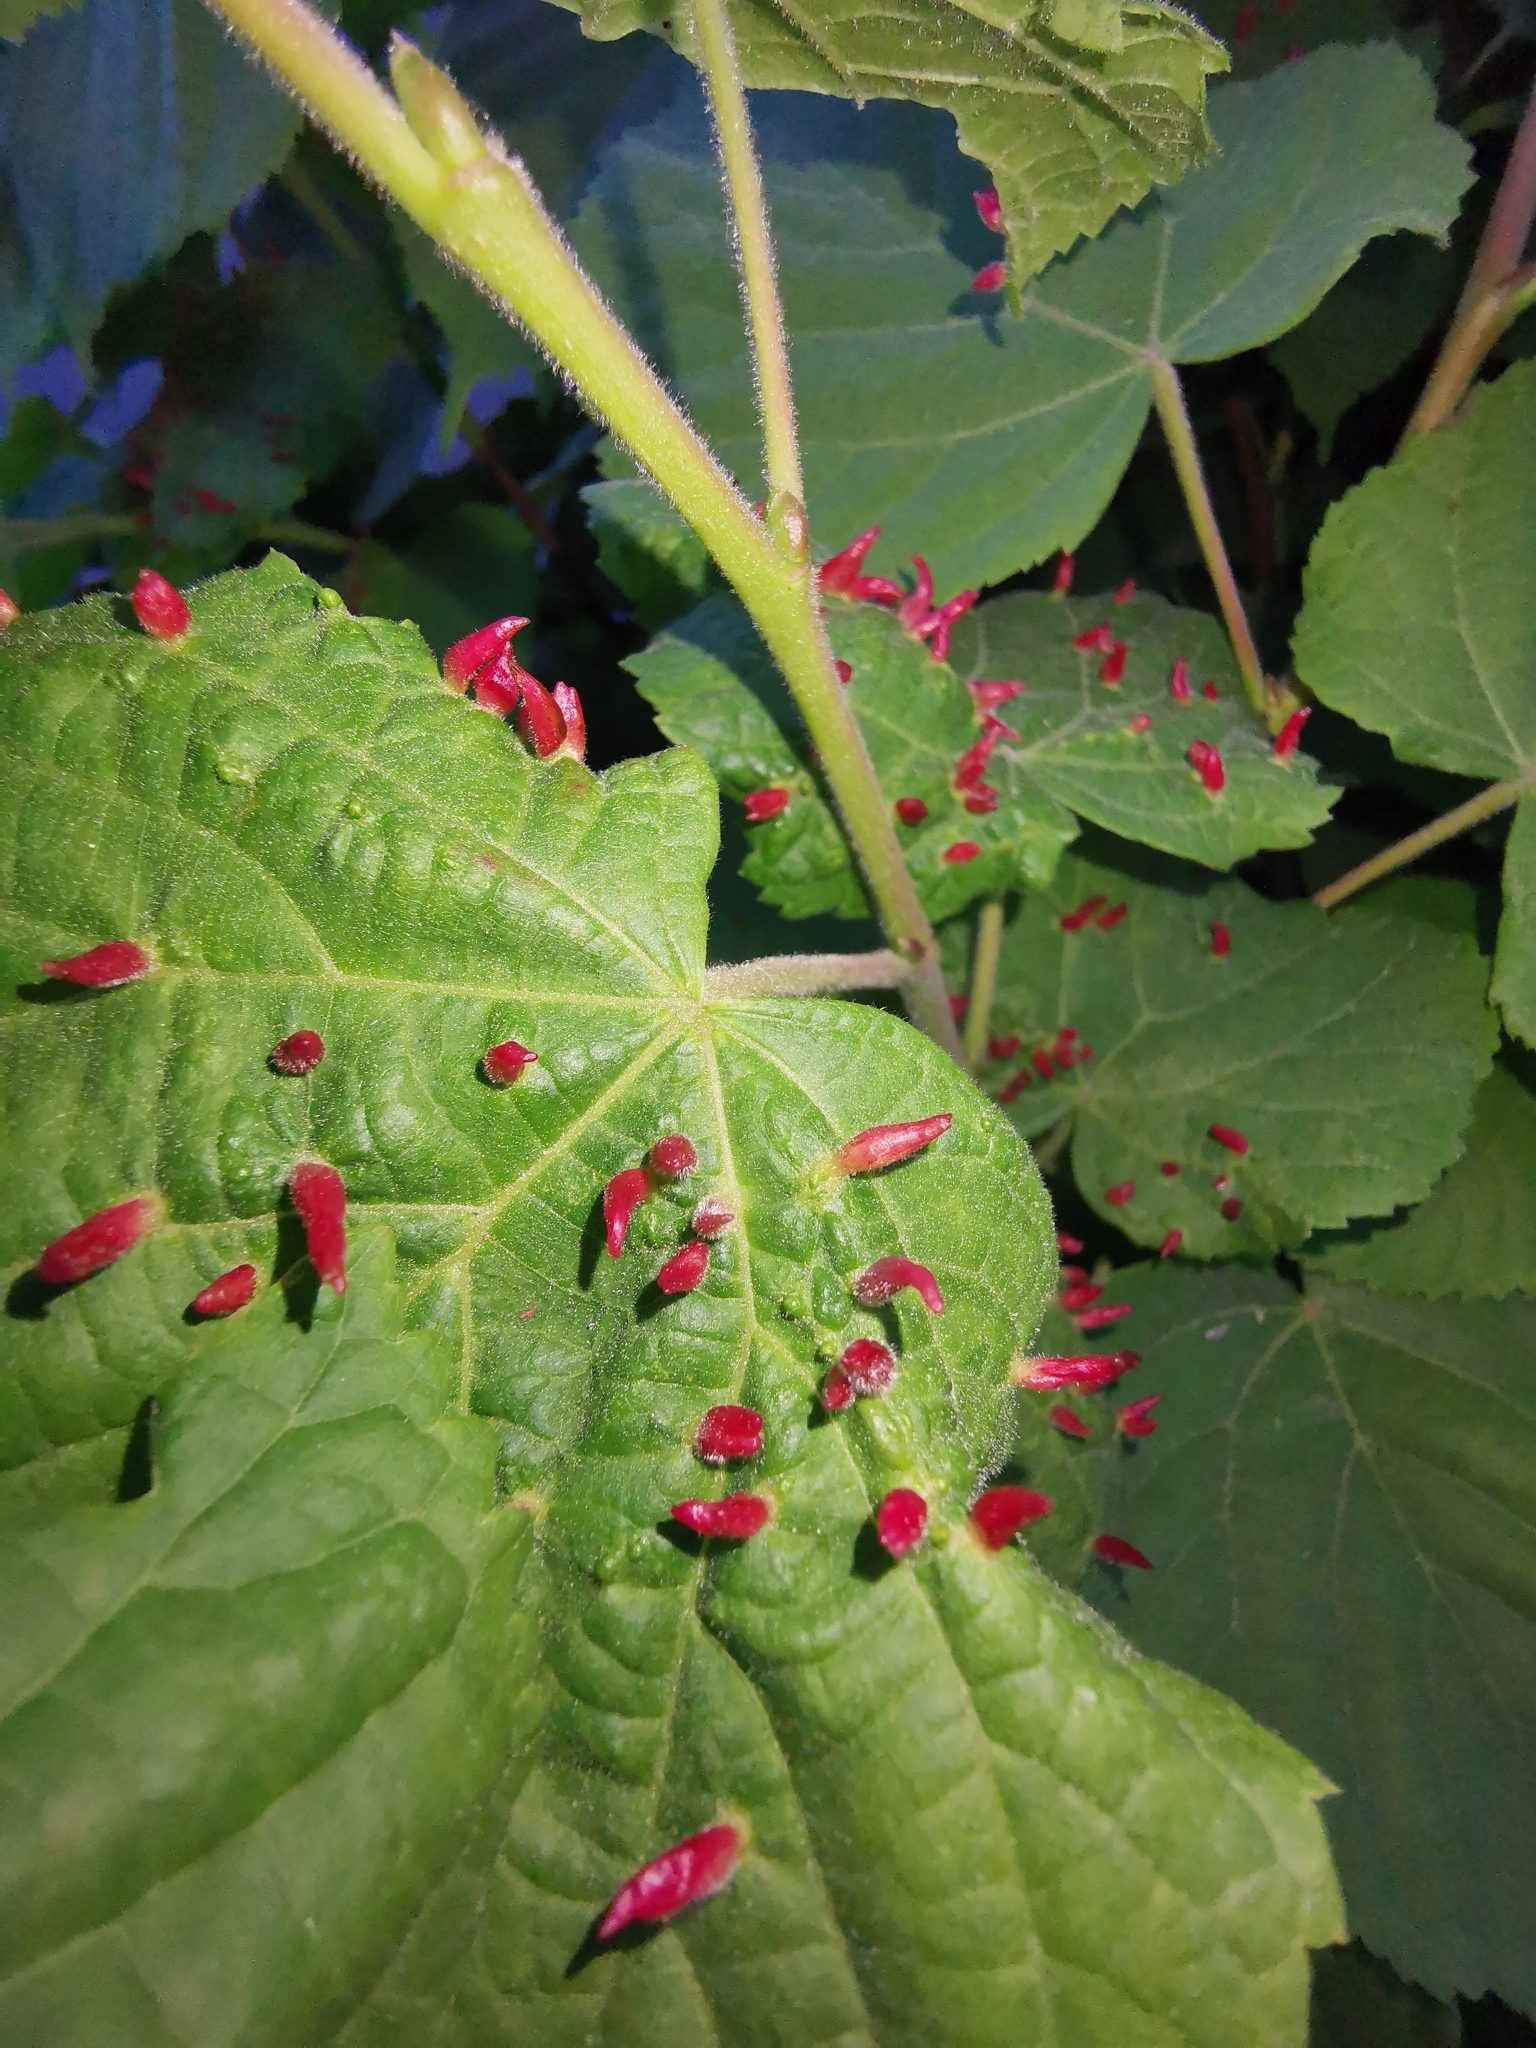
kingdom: Animalia
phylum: Arthropoda
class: Arachnida
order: Trombidiformes
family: Eriophyidae
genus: Eriophyes
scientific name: Eriophyes tiliae
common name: Red nail gall mite
